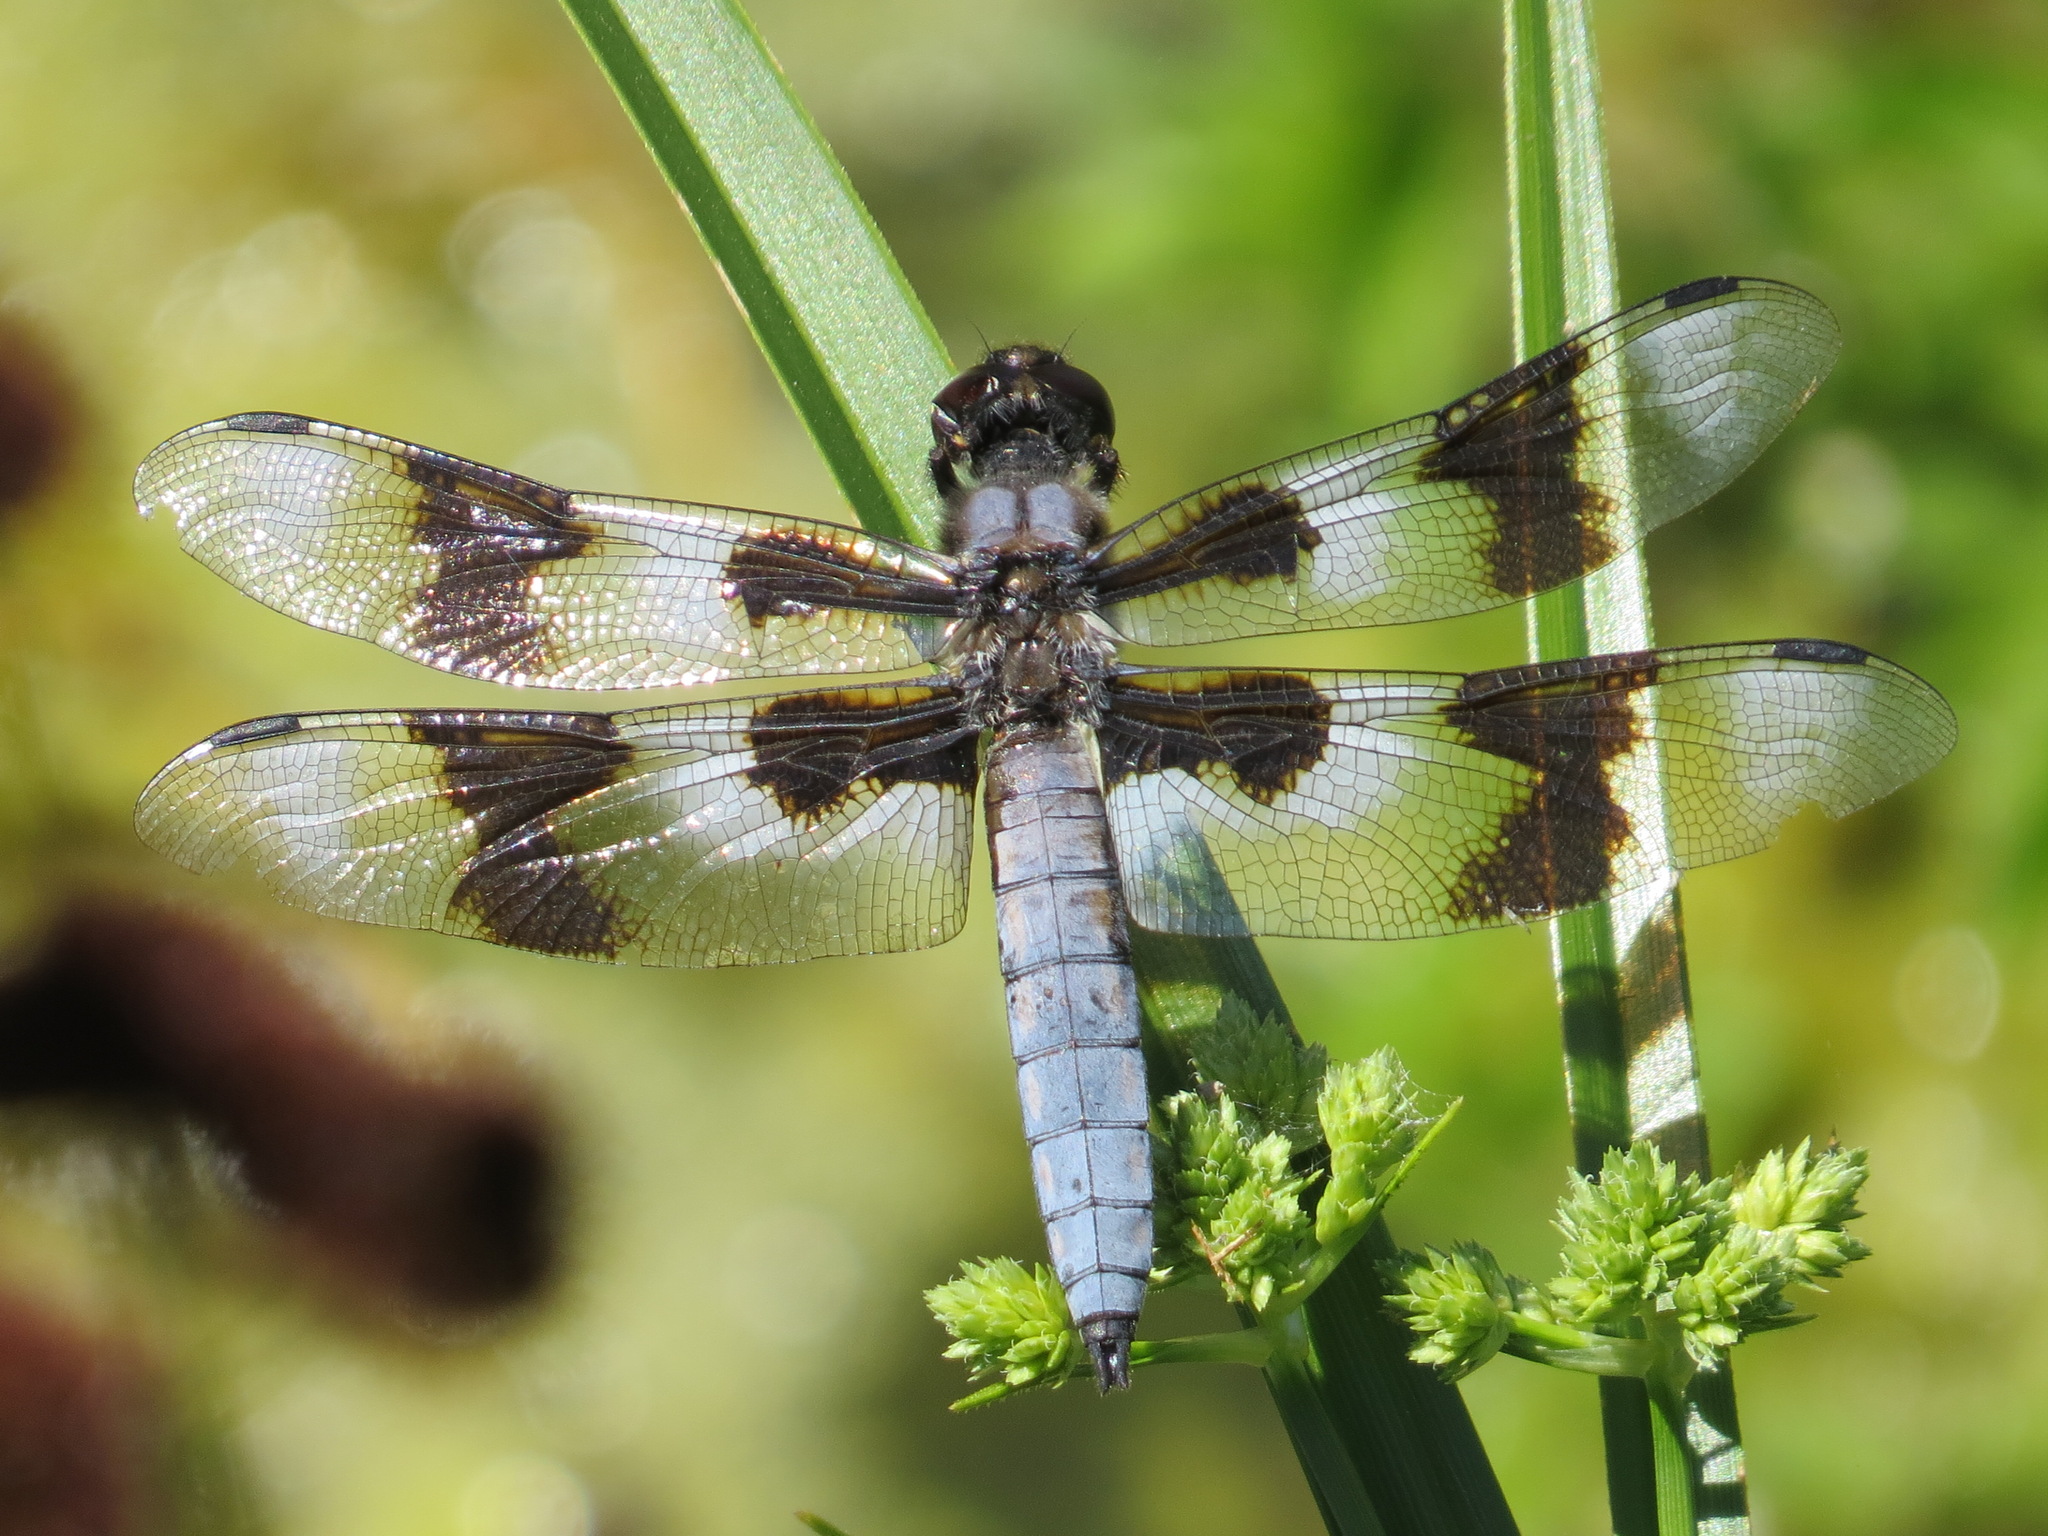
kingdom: Animalia
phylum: Arthropoda
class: Insecta
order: Odonata
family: Libellulidae
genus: Libellula
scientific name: Libellula forensis
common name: Eight-spotted skimmer
